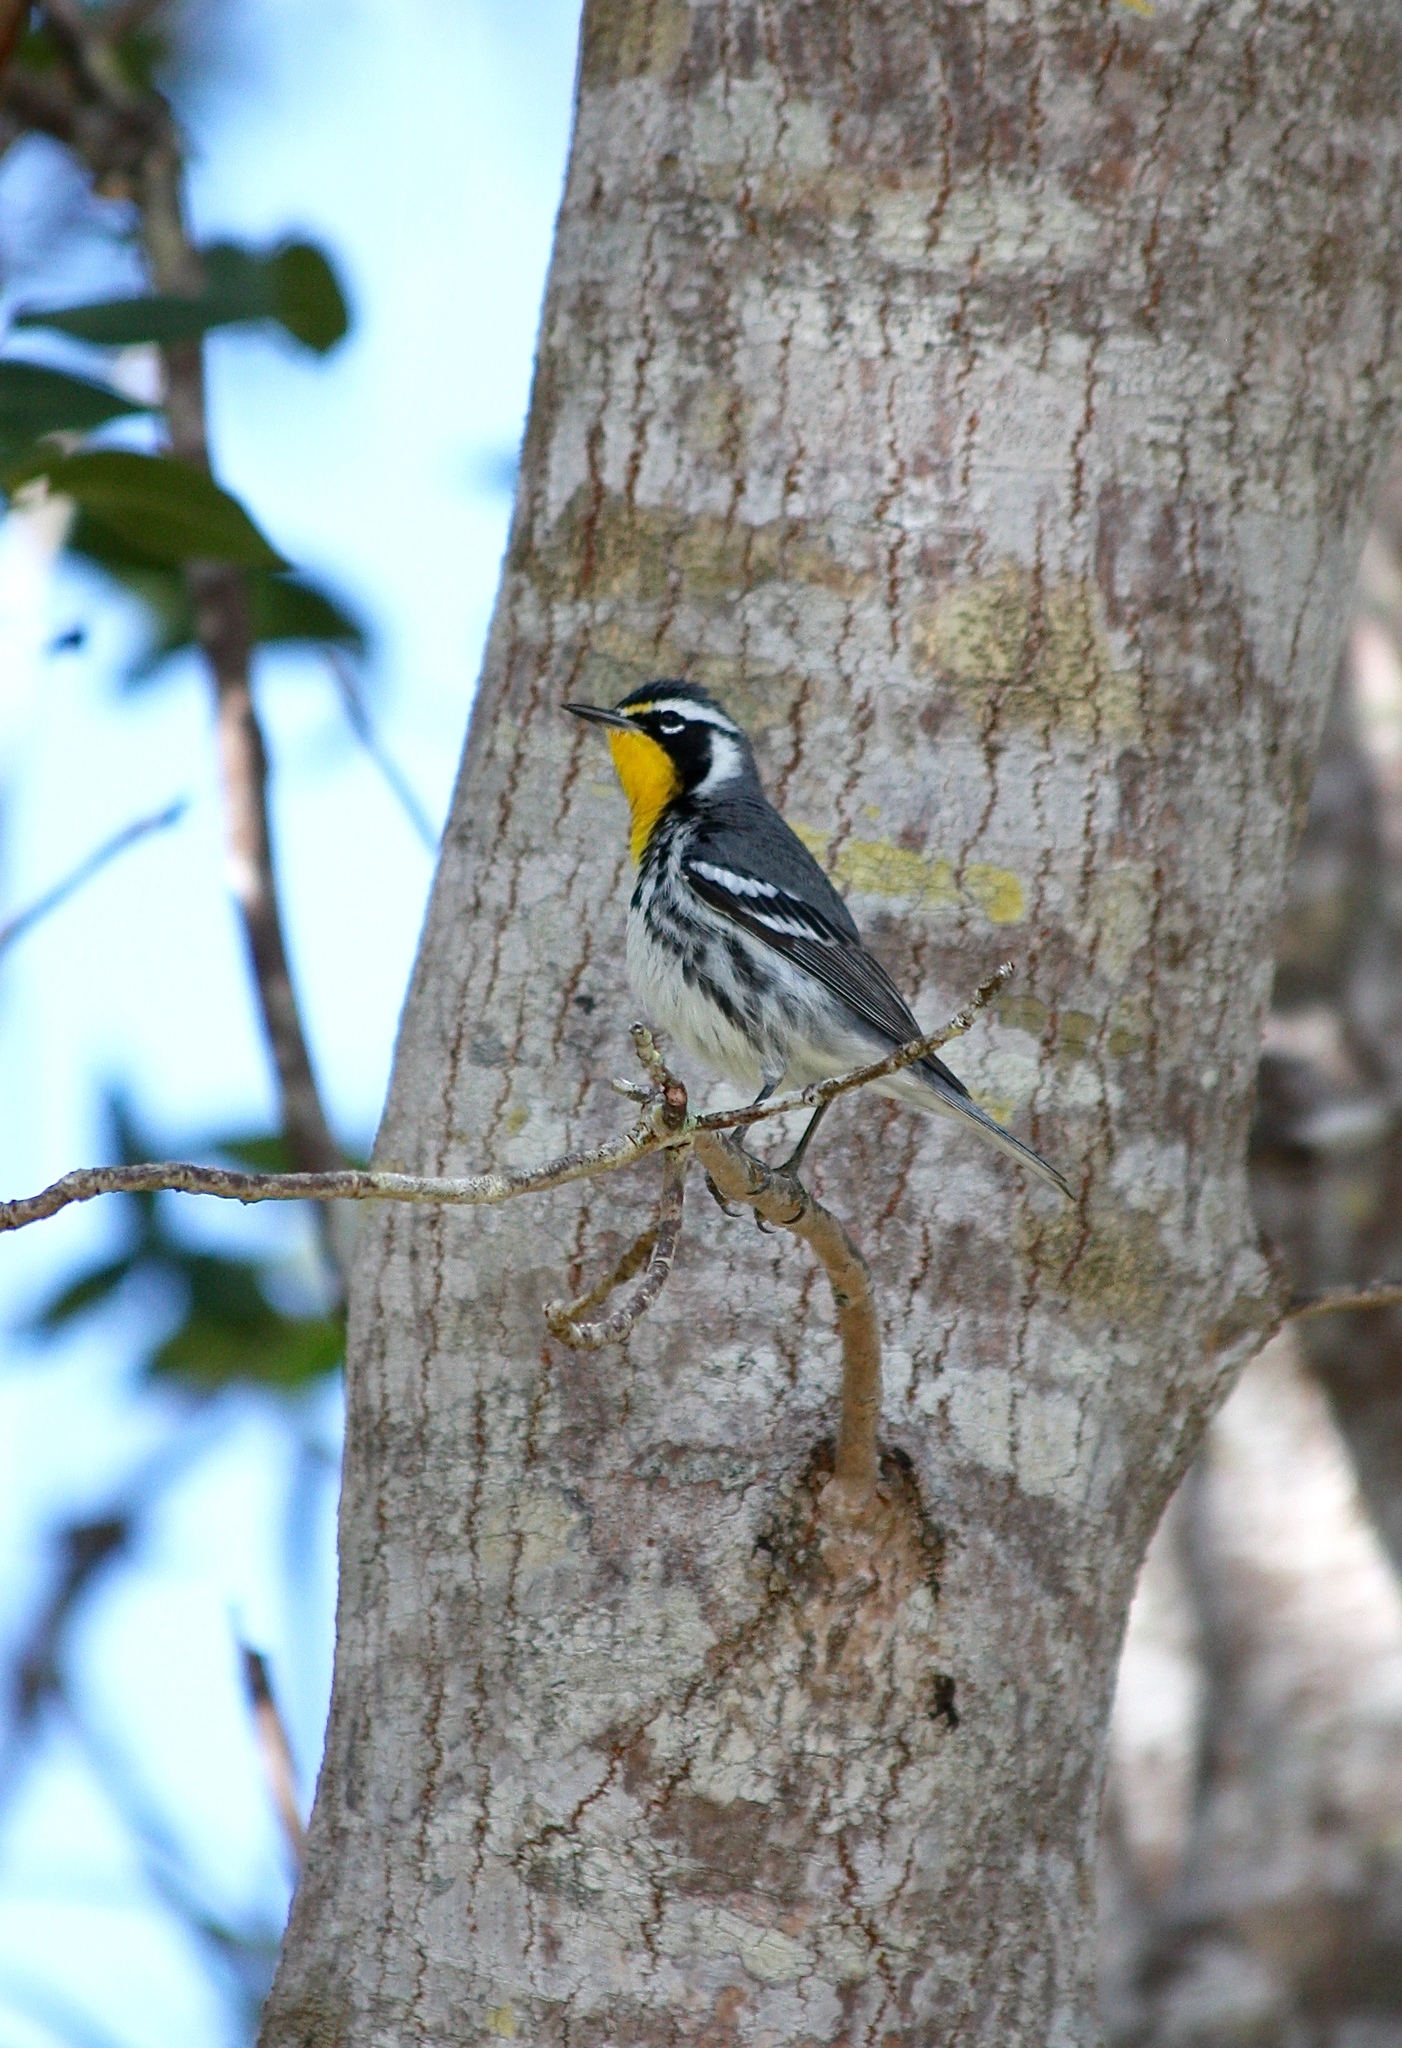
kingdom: Animalia
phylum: Chordata
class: Aves
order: Passeriformes
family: Parulidae
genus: Setophaga
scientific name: Setophaga dominica
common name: Yellow-throated warbler
